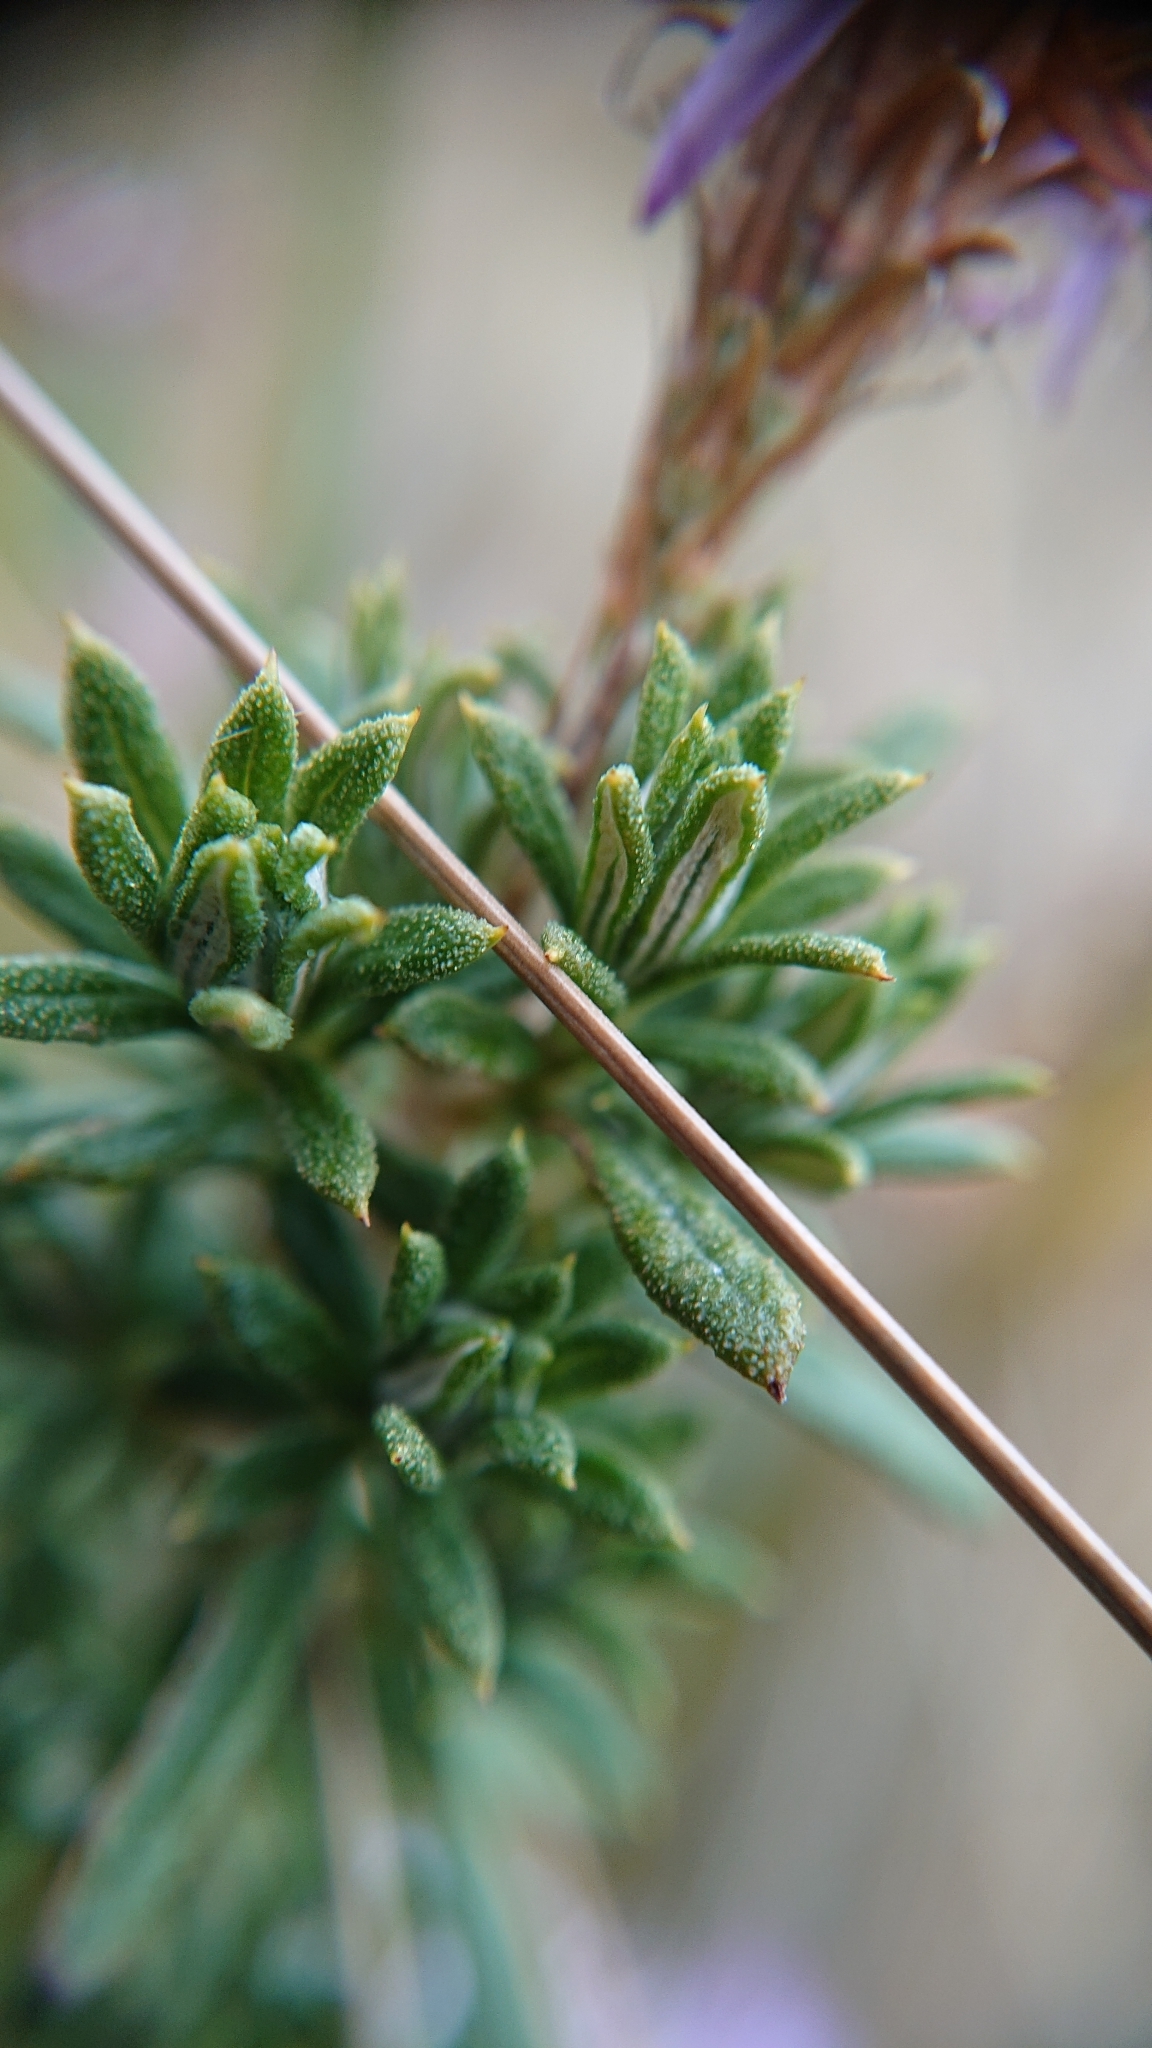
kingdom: Plantae
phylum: Tracheophyta
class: Magnoliopsida
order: Asterales
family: Asteraceae
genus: Diplostephium
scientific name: Diplostephium glandulosum
